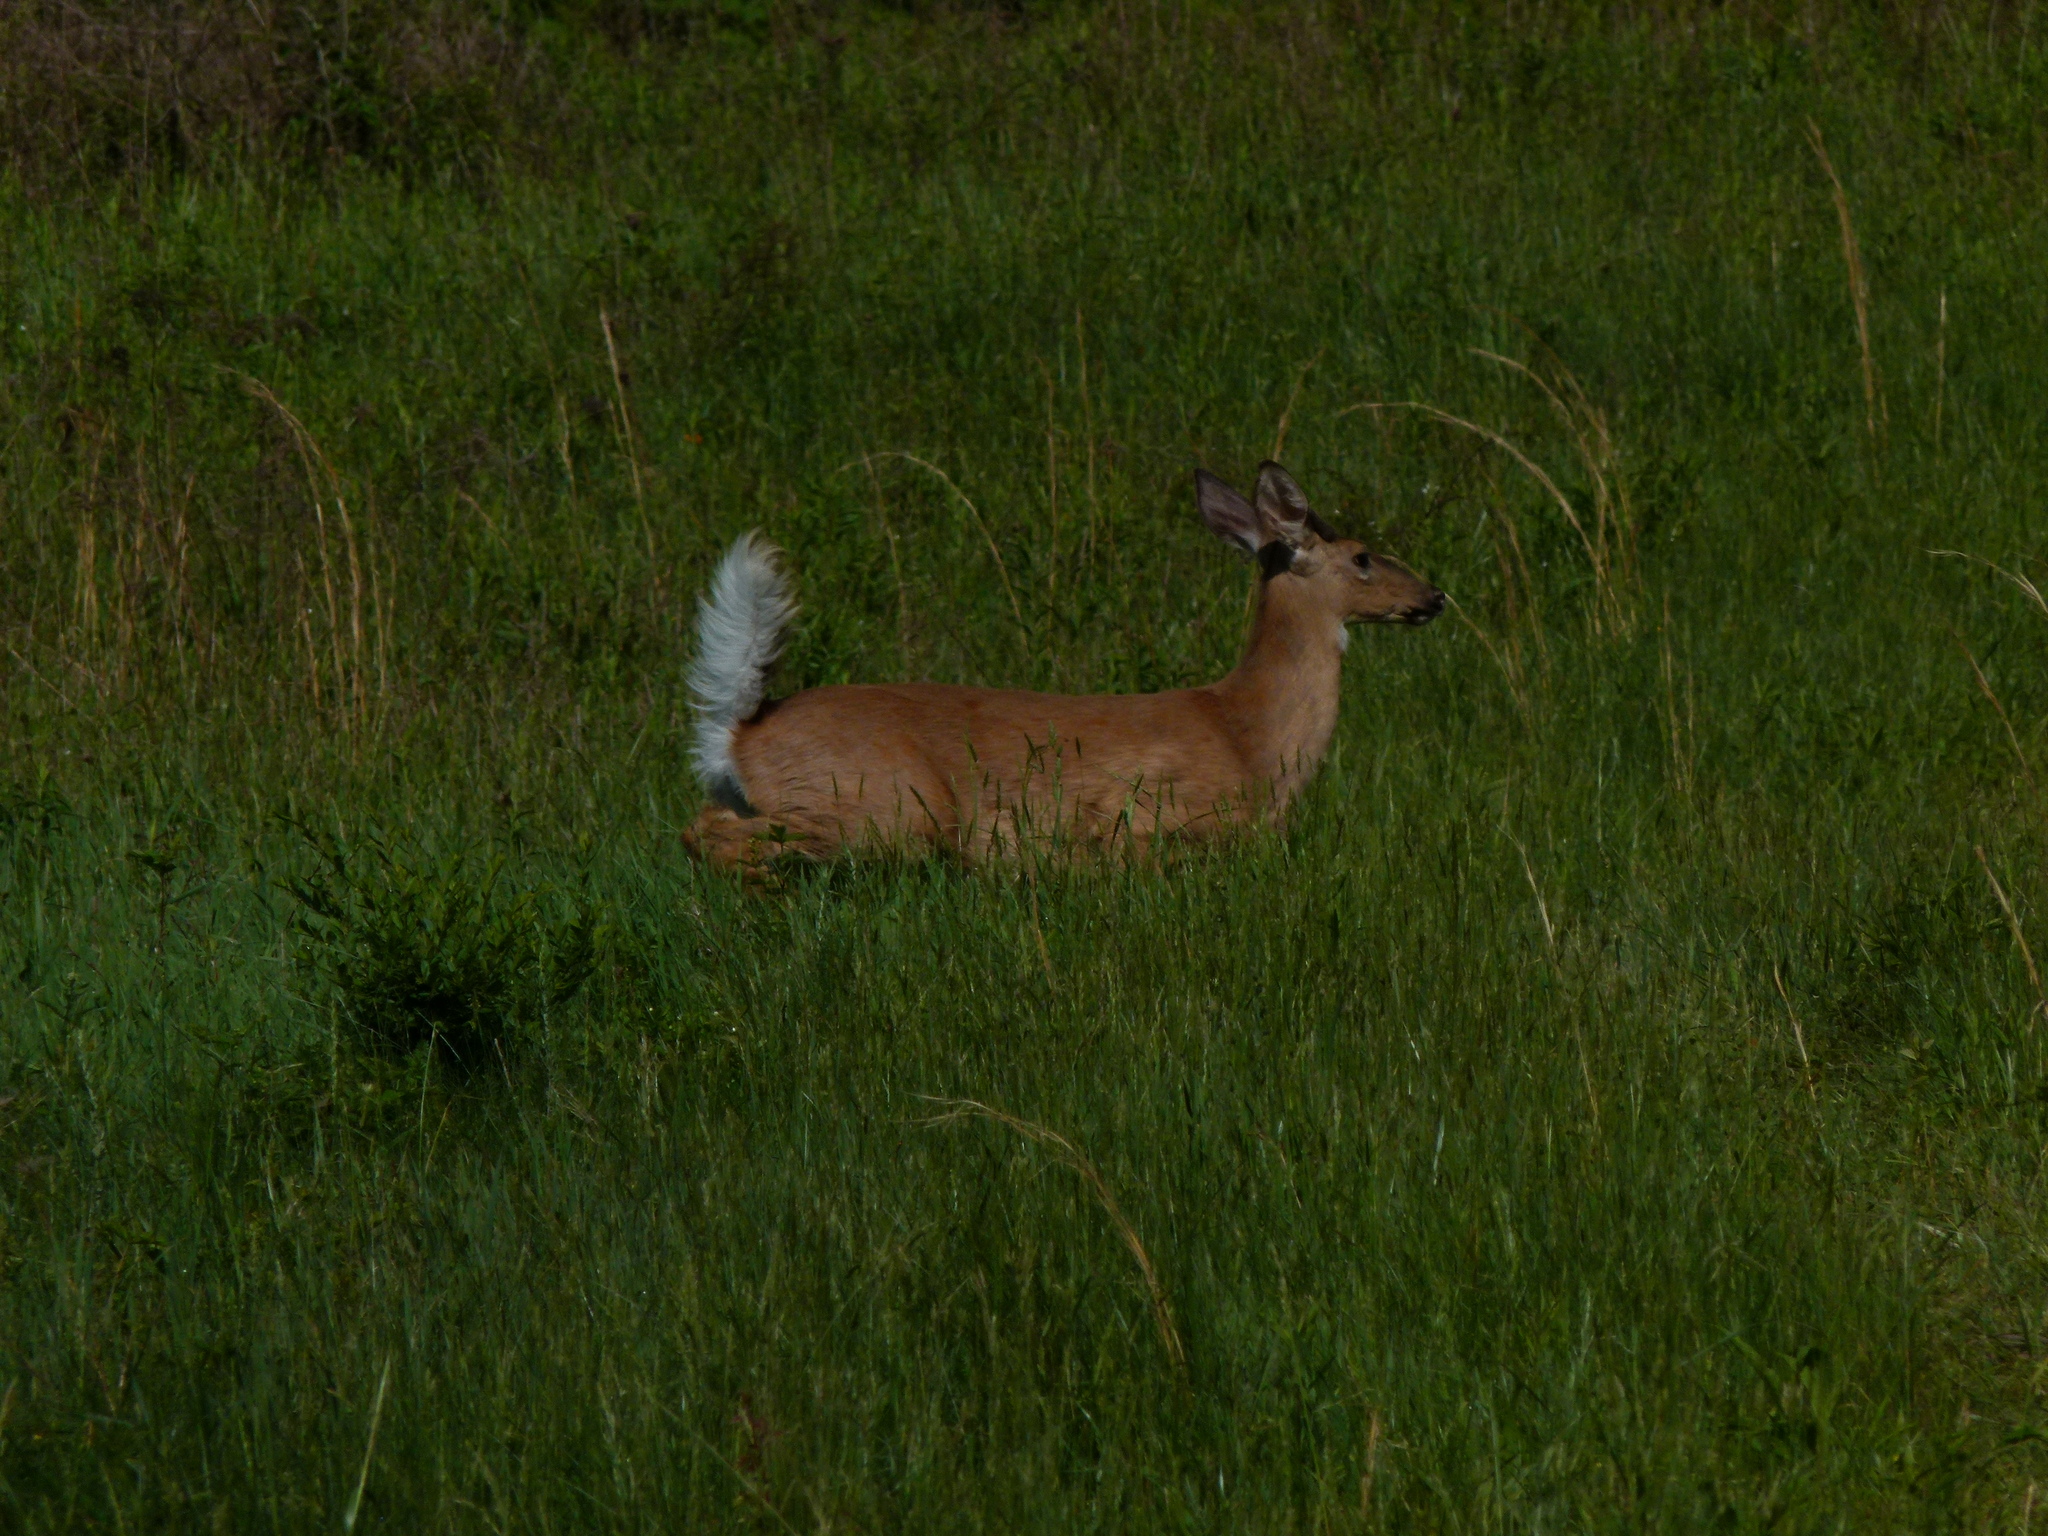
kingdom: Animalia
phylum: Chordata
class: Mammalia
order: Artiodactyla
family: Cervidae
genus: Odocoileus
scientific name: Odocoileus virginianus
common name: White-tailed deer
